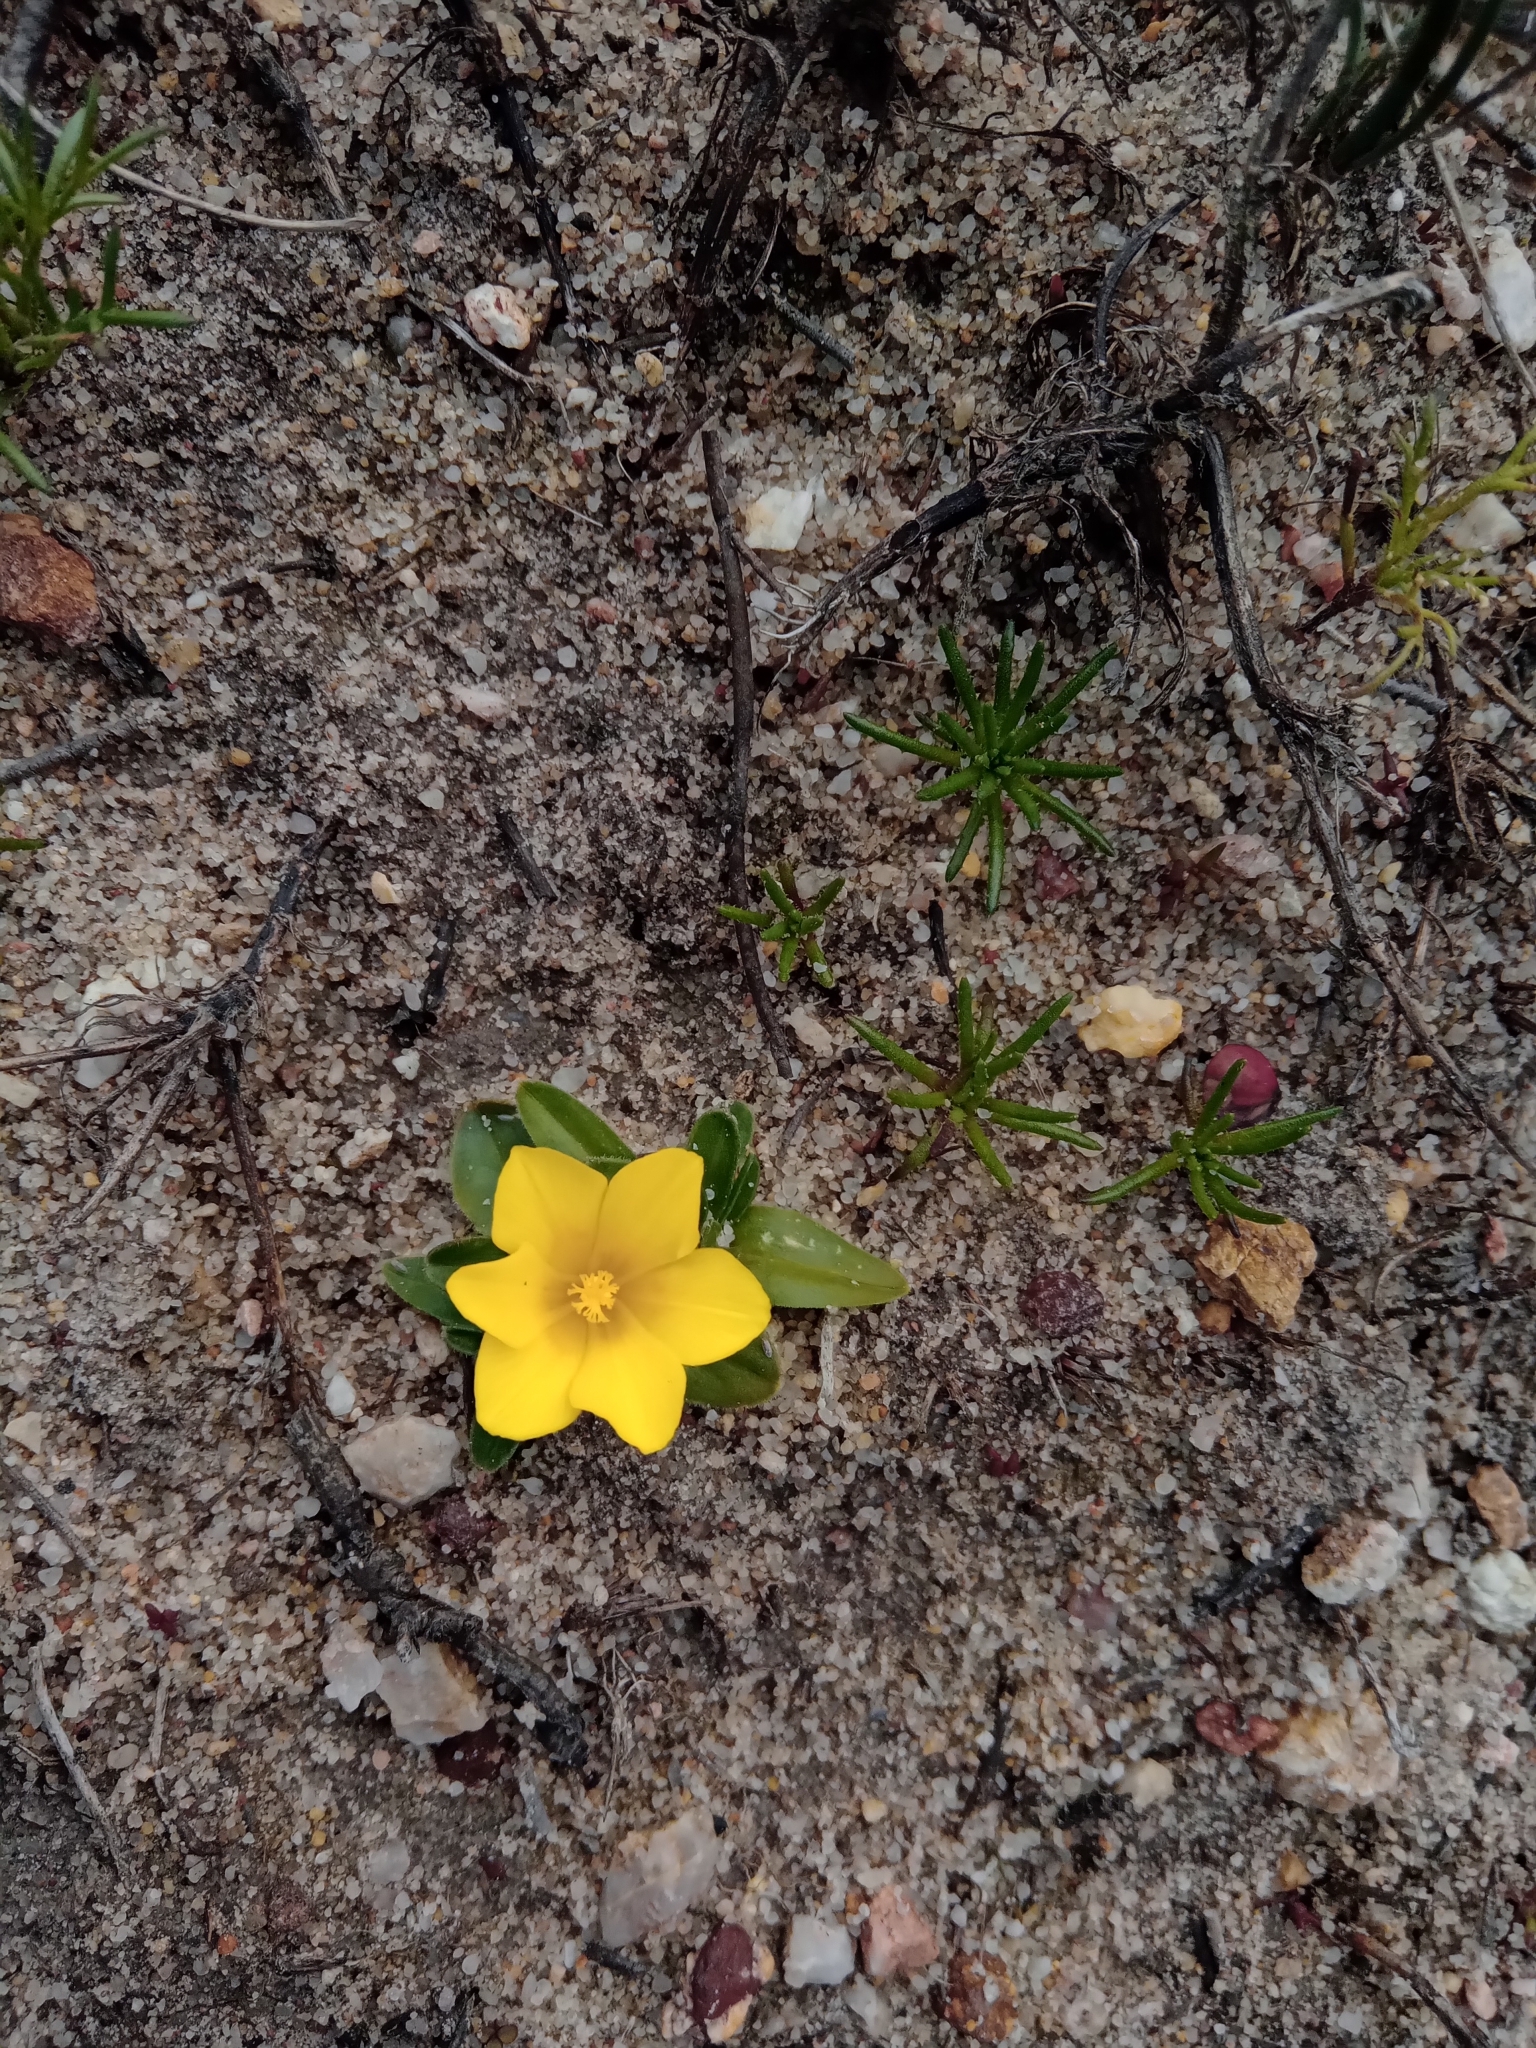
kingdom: Plantae
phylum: Tracheophyta
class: Liliopsida
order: Asparagales
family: Iridaceae
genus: Moraea
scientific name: Moraea galaxia
